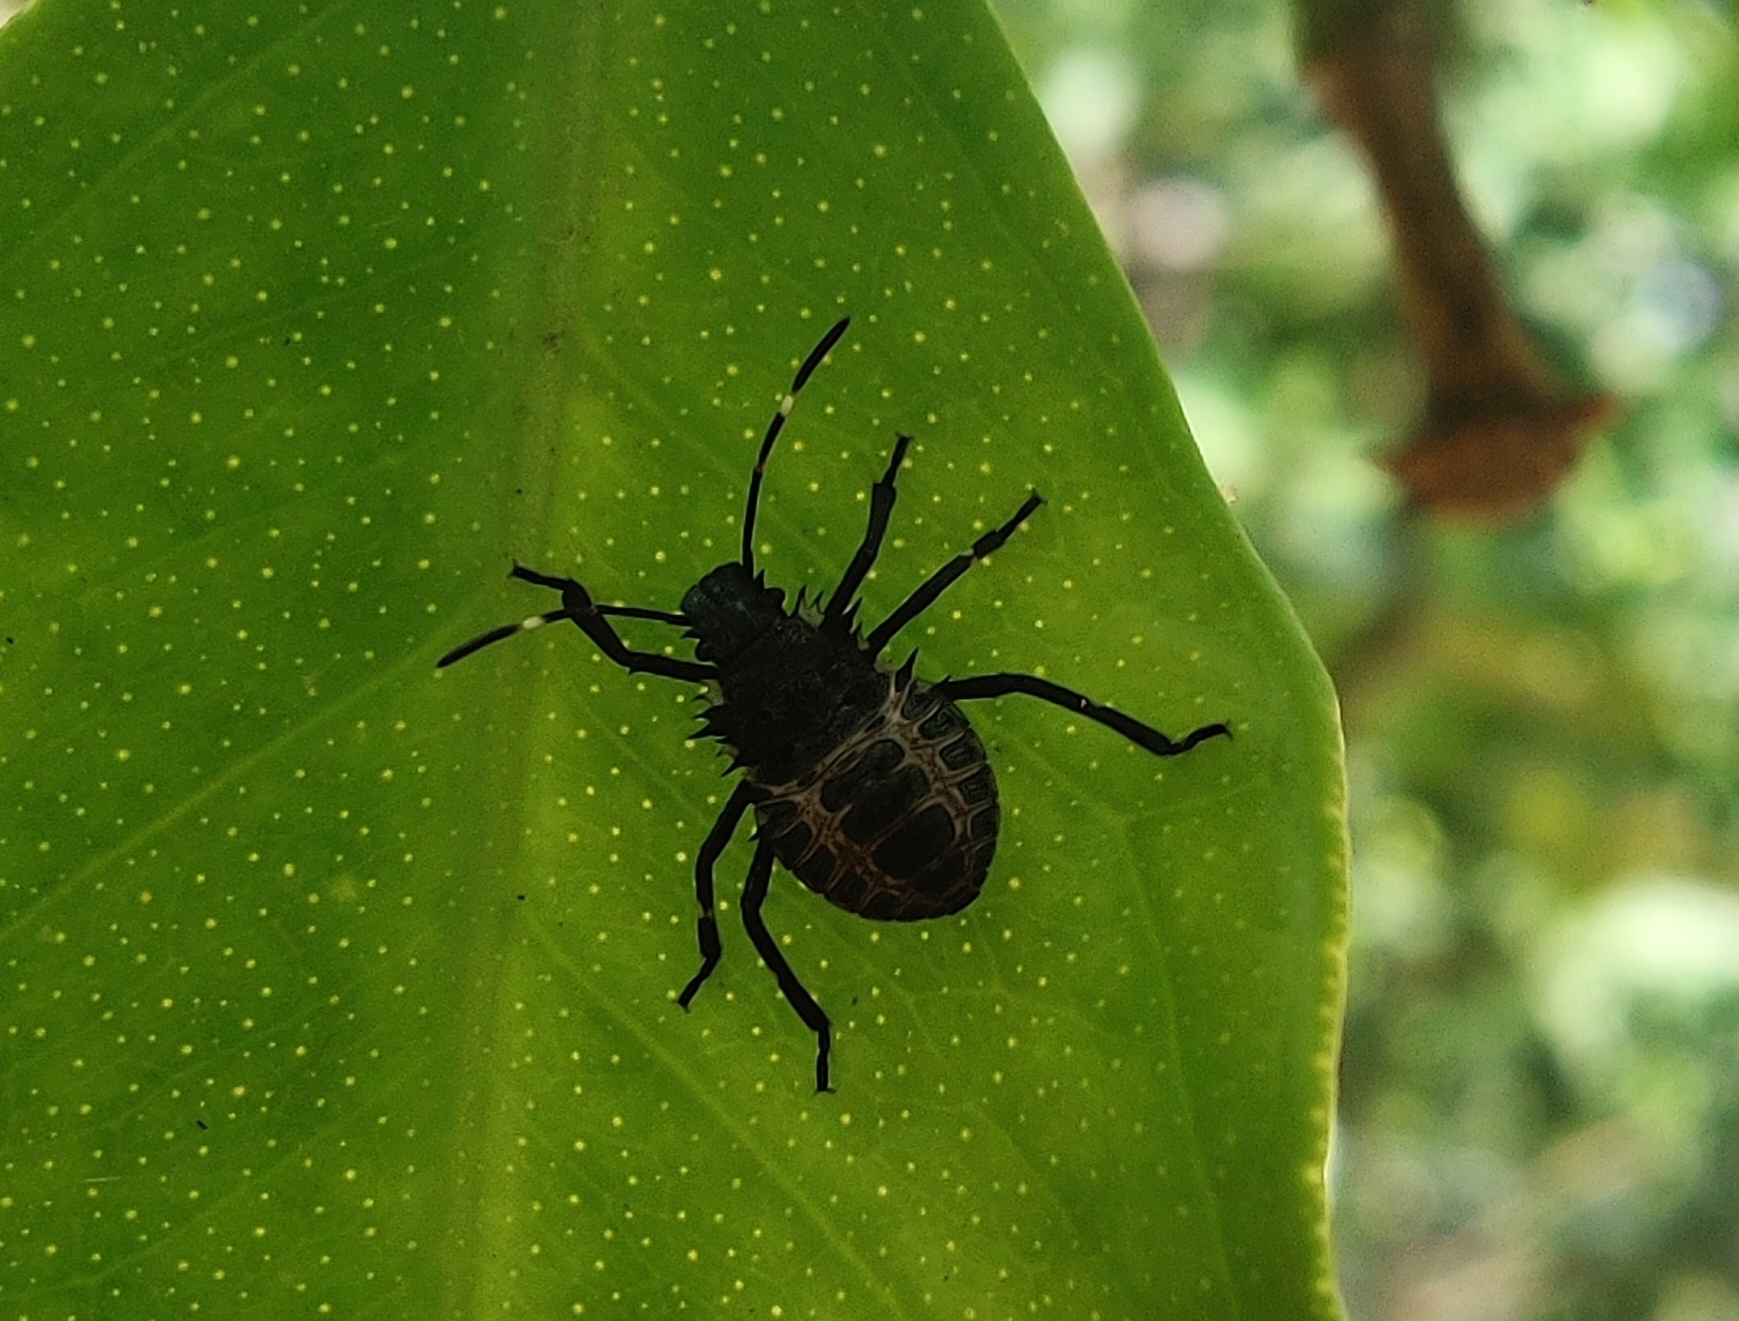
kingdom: Animalia
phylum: Arthropoda
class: Insecta
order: Hemiptera
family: Pentatomidae
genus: Halyomorpha
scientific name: Halyomorpha halys
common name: Brown marmorated stink bug
